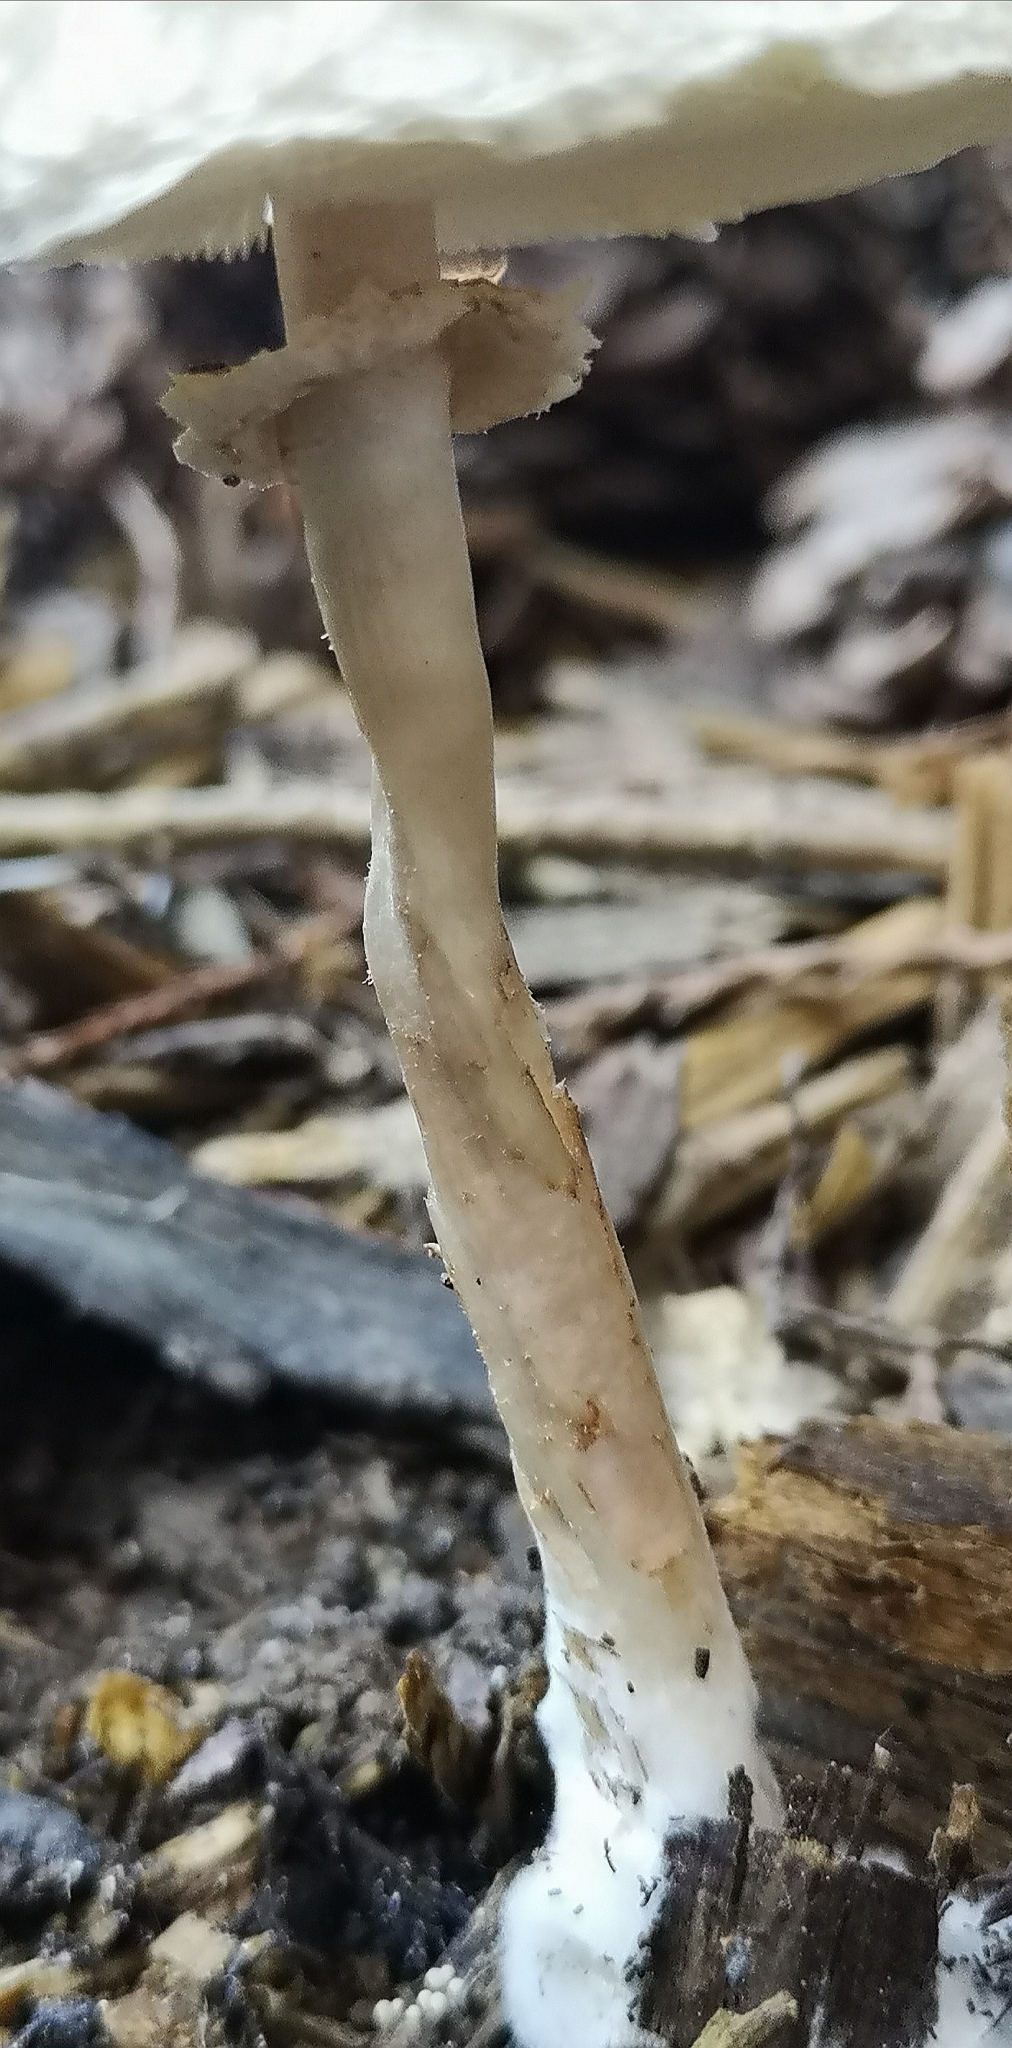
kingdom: Fungi
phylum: Basidiomycota
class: Agaricomycetes
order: Agaricales
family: Agaricaceae
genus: Chlorophyllum
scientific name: Chlorophyllum olivieri
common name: Conifer parasol
